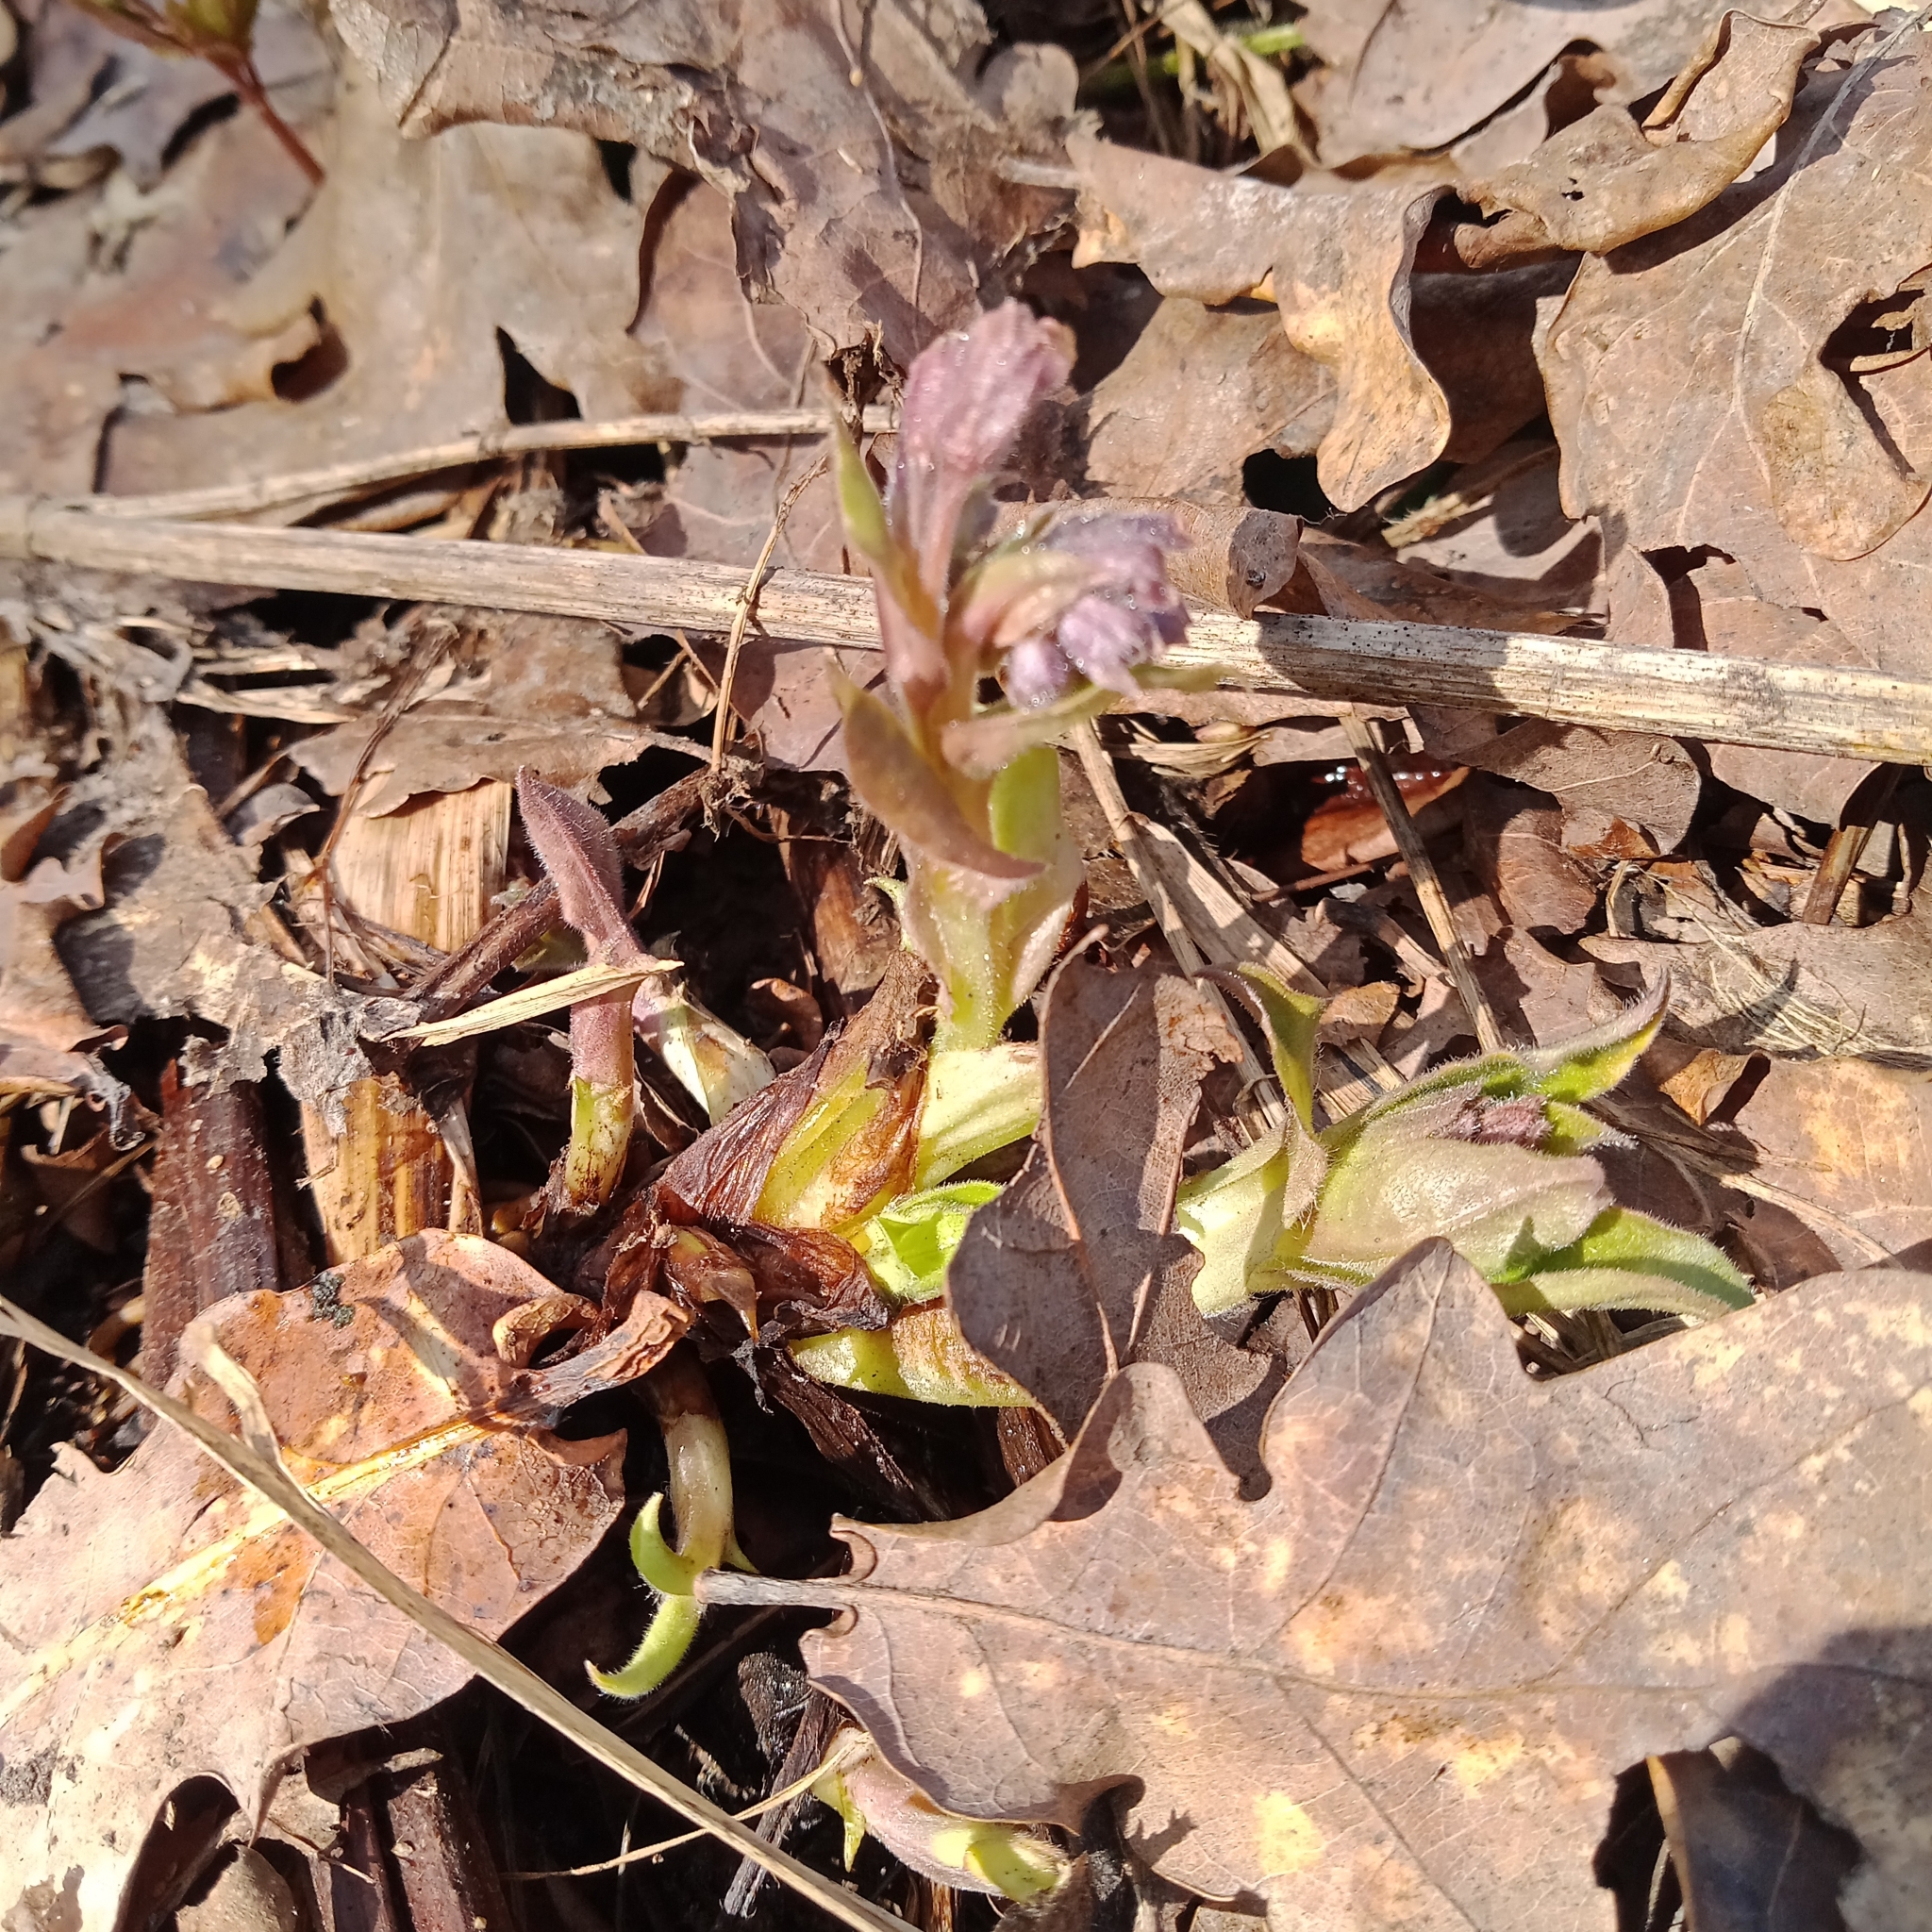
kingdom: Plantae
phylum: Tracheophyta
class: Magnoliopsida
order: Boraginales
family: Boraginaceae
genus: Pulmonaria
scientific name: Pulmonaria obscura
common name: Suffolk lungwort
